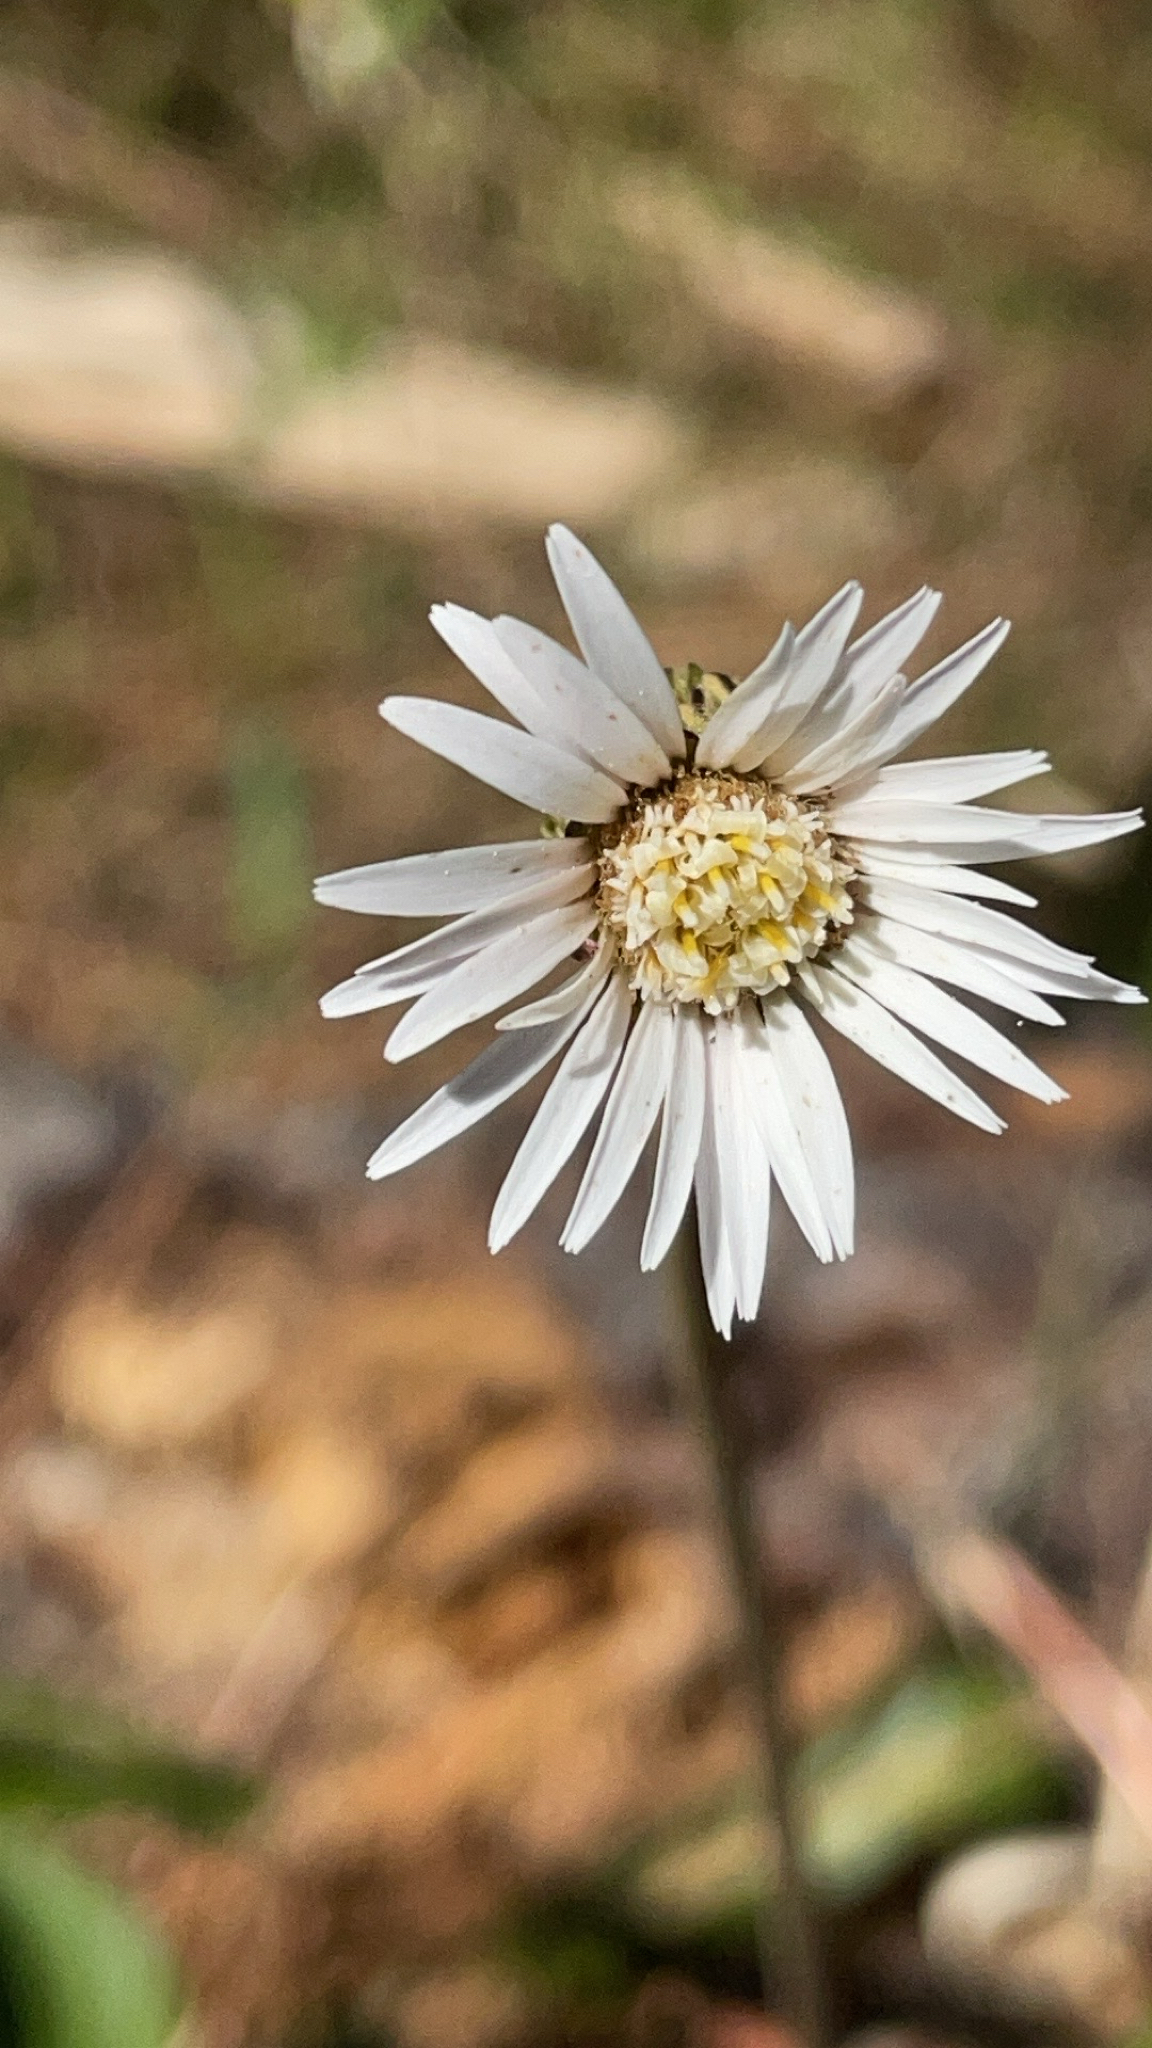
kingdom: Plantae
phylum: Tracheophyta
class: Magnoliopsida
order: Asterales
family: Asteraceae
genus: Chaptalia
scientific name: Chaptalia tomentosa
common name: Woolly sunbonnet
